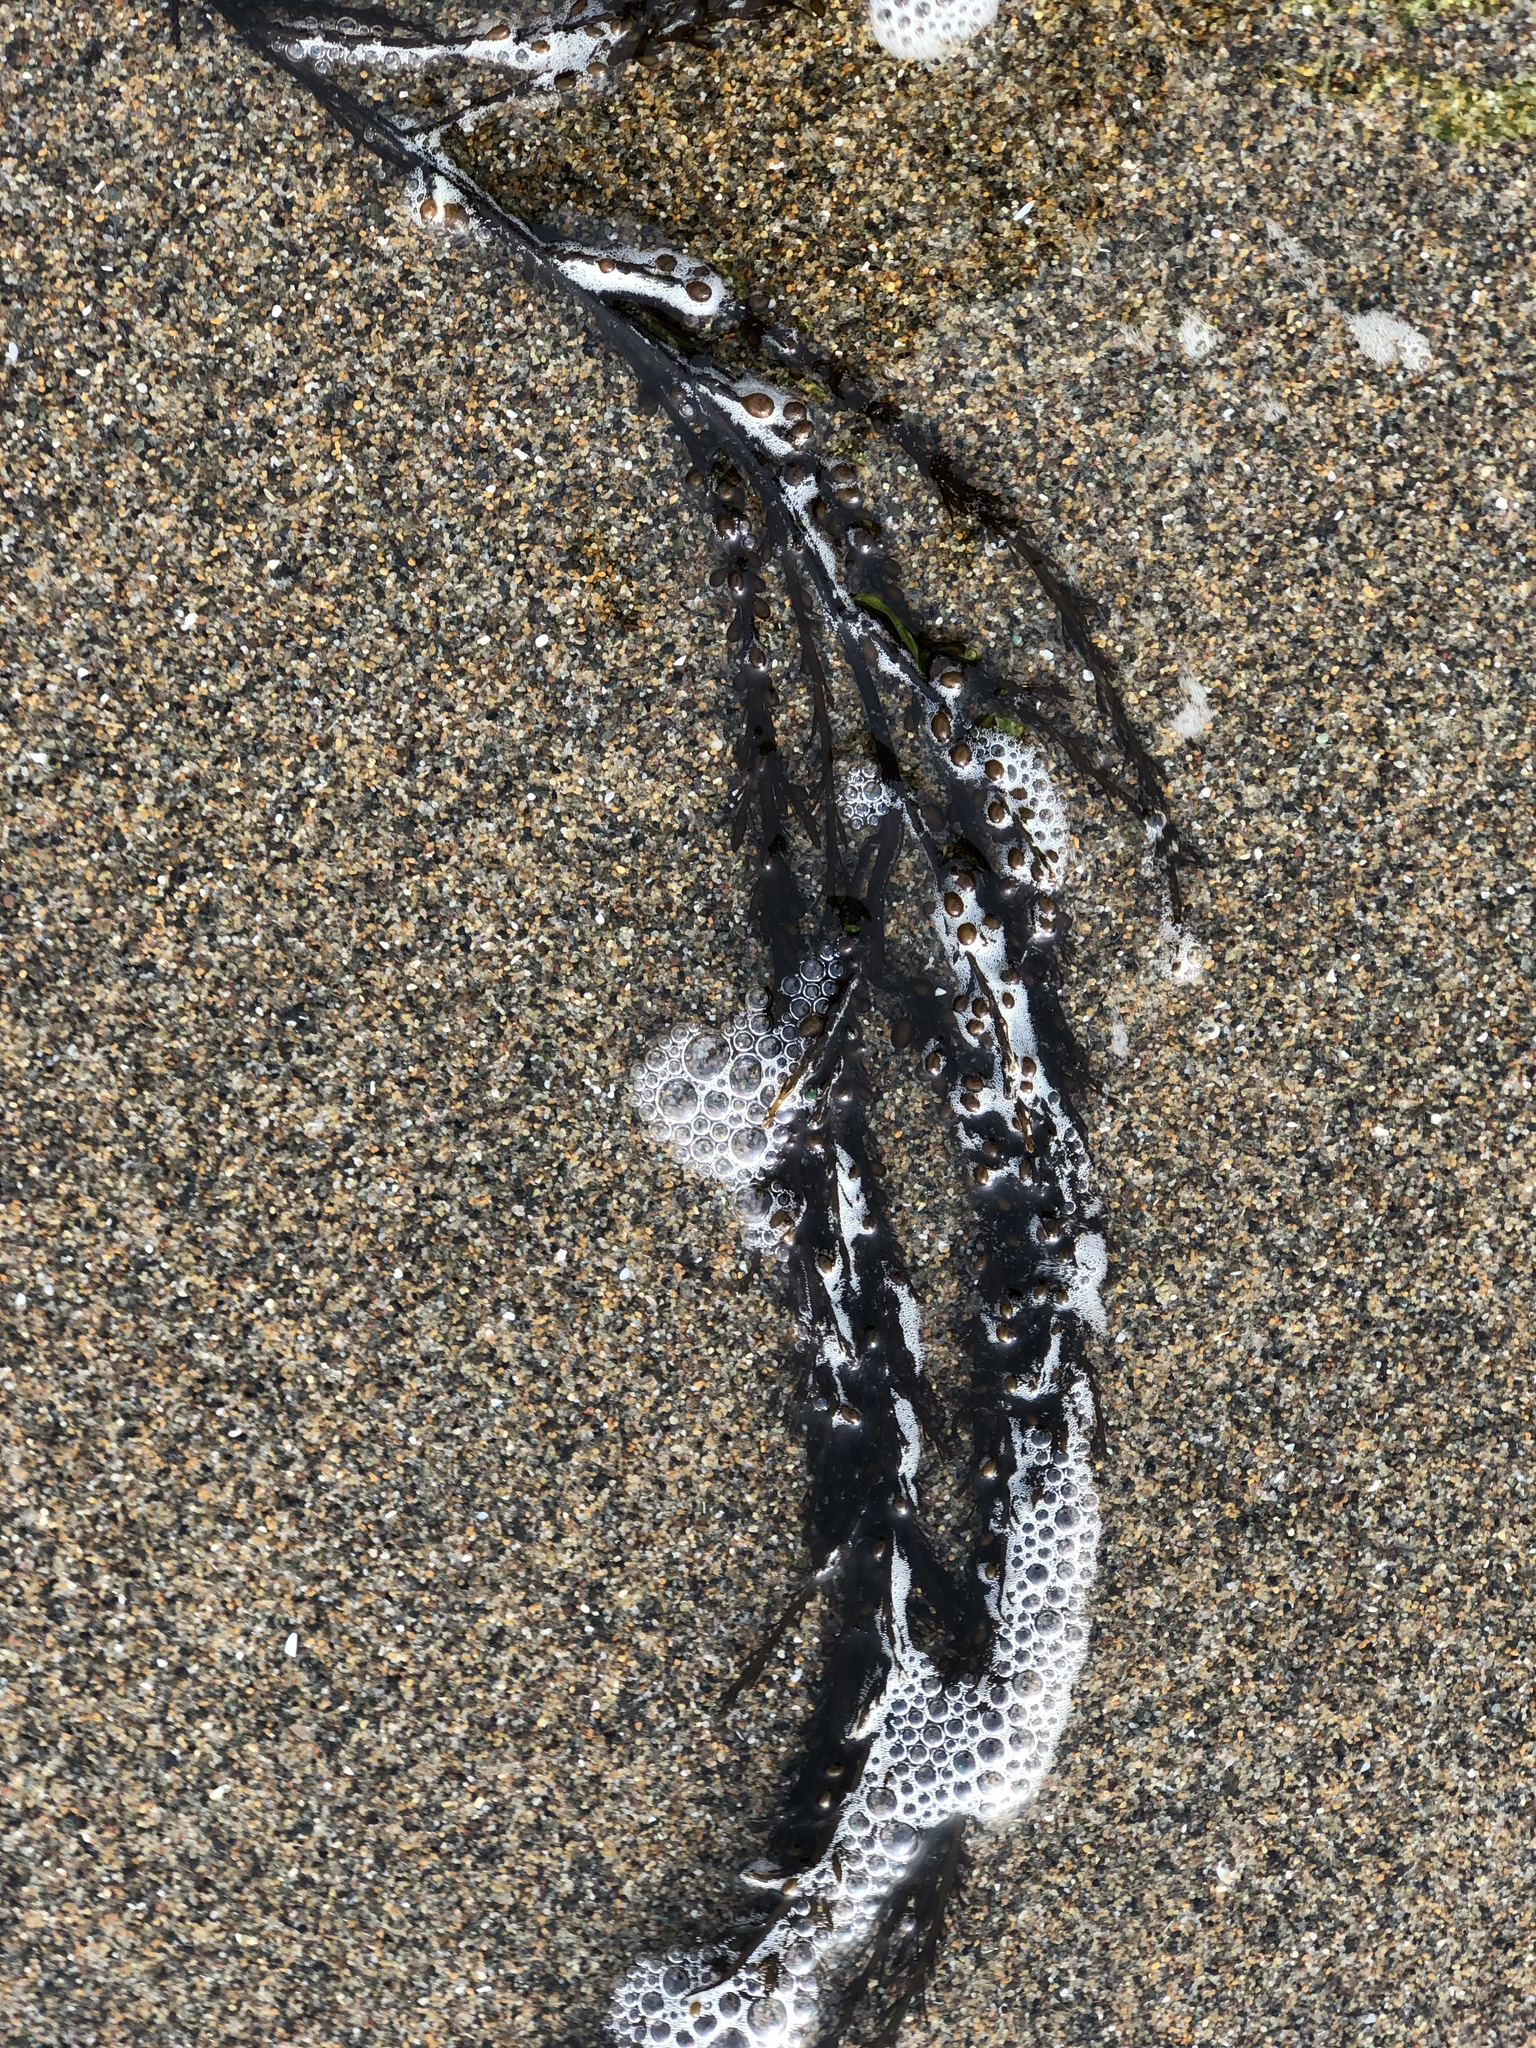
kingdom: Chromista
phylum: Ochrophyta
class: Phaeophyceae
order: Fucales
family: Sargassaceae
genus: Sargassum
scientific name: Sargassum muticum
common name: Japweed
